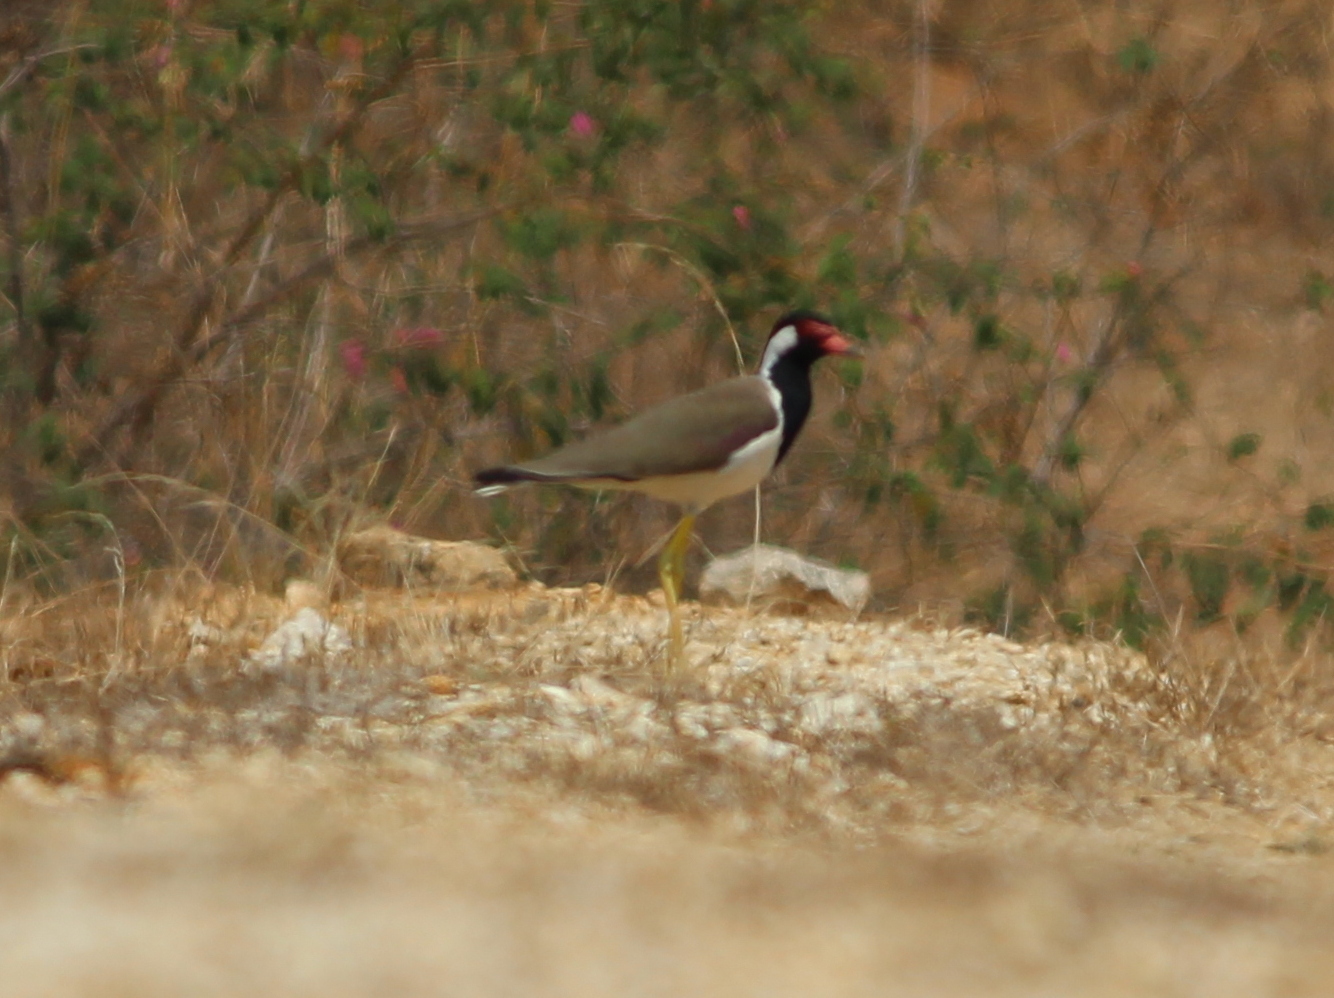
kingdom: Animalia
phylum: Chordata
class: Aves
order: Charadriiformes
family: Charadriidae
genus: Vanellus
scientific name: Vanellus indicus
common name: Red-wattled lapwing
